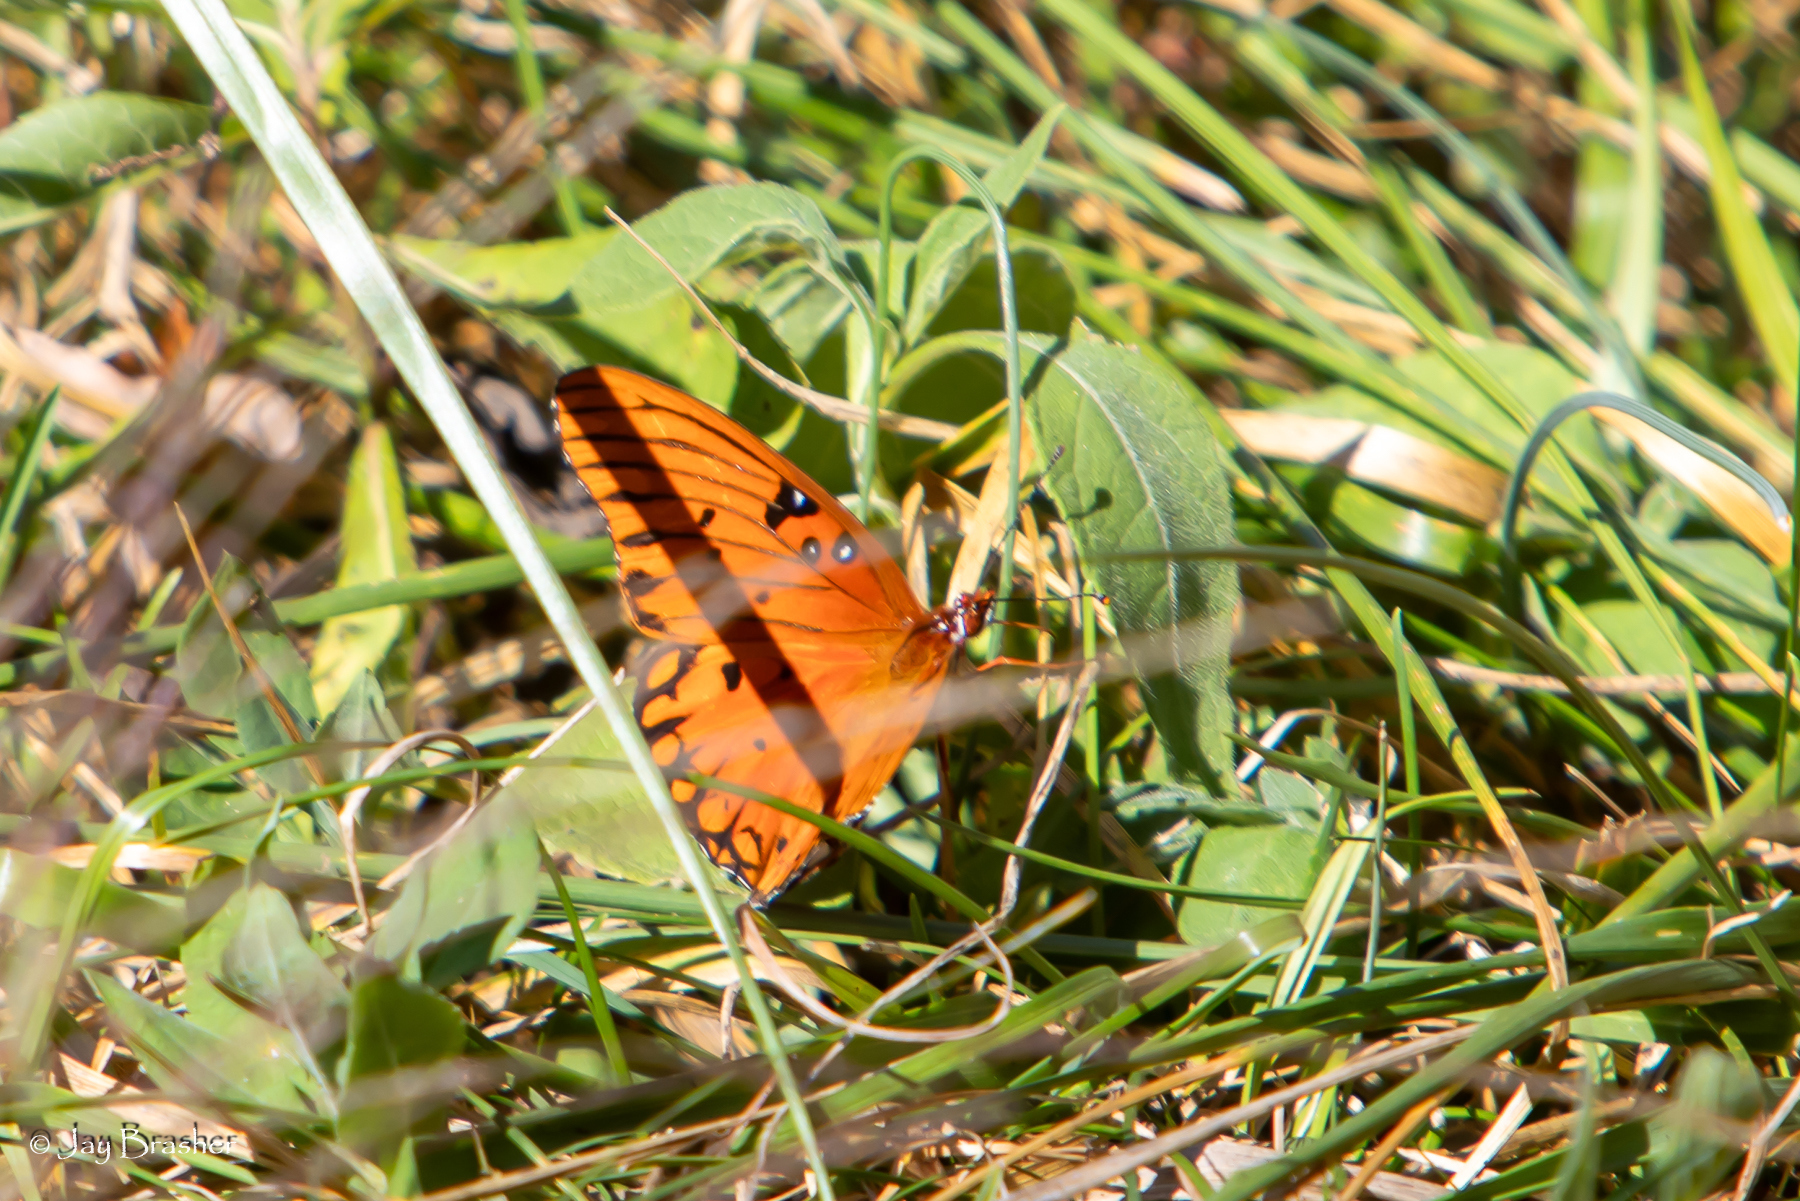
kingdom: Animalia
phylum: Arthropoda
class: Insecta
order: Lepidoptera
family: Nymphalidae
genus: Dione
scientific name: Dione vanillae
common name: Gulf fritillary
